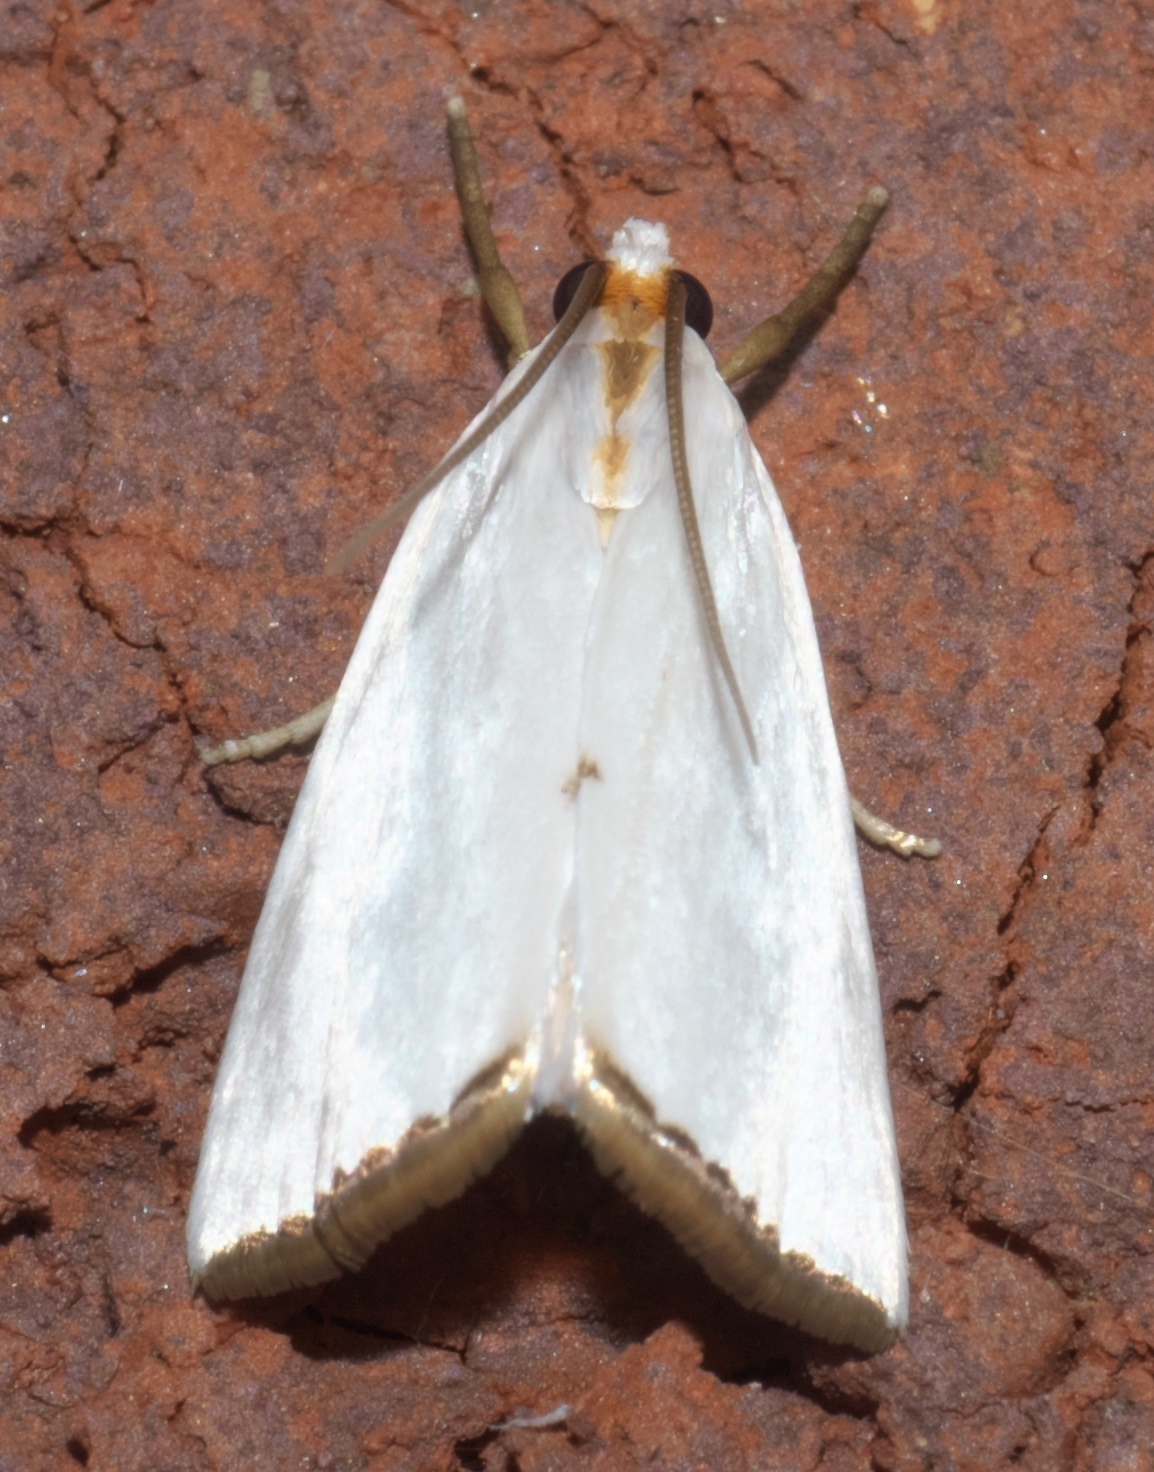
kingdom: Animalia
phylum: Arthropoda
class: Insecta
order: Lepidoptera
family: Crambidae
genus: Argyria
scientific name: Argyria nivalis
